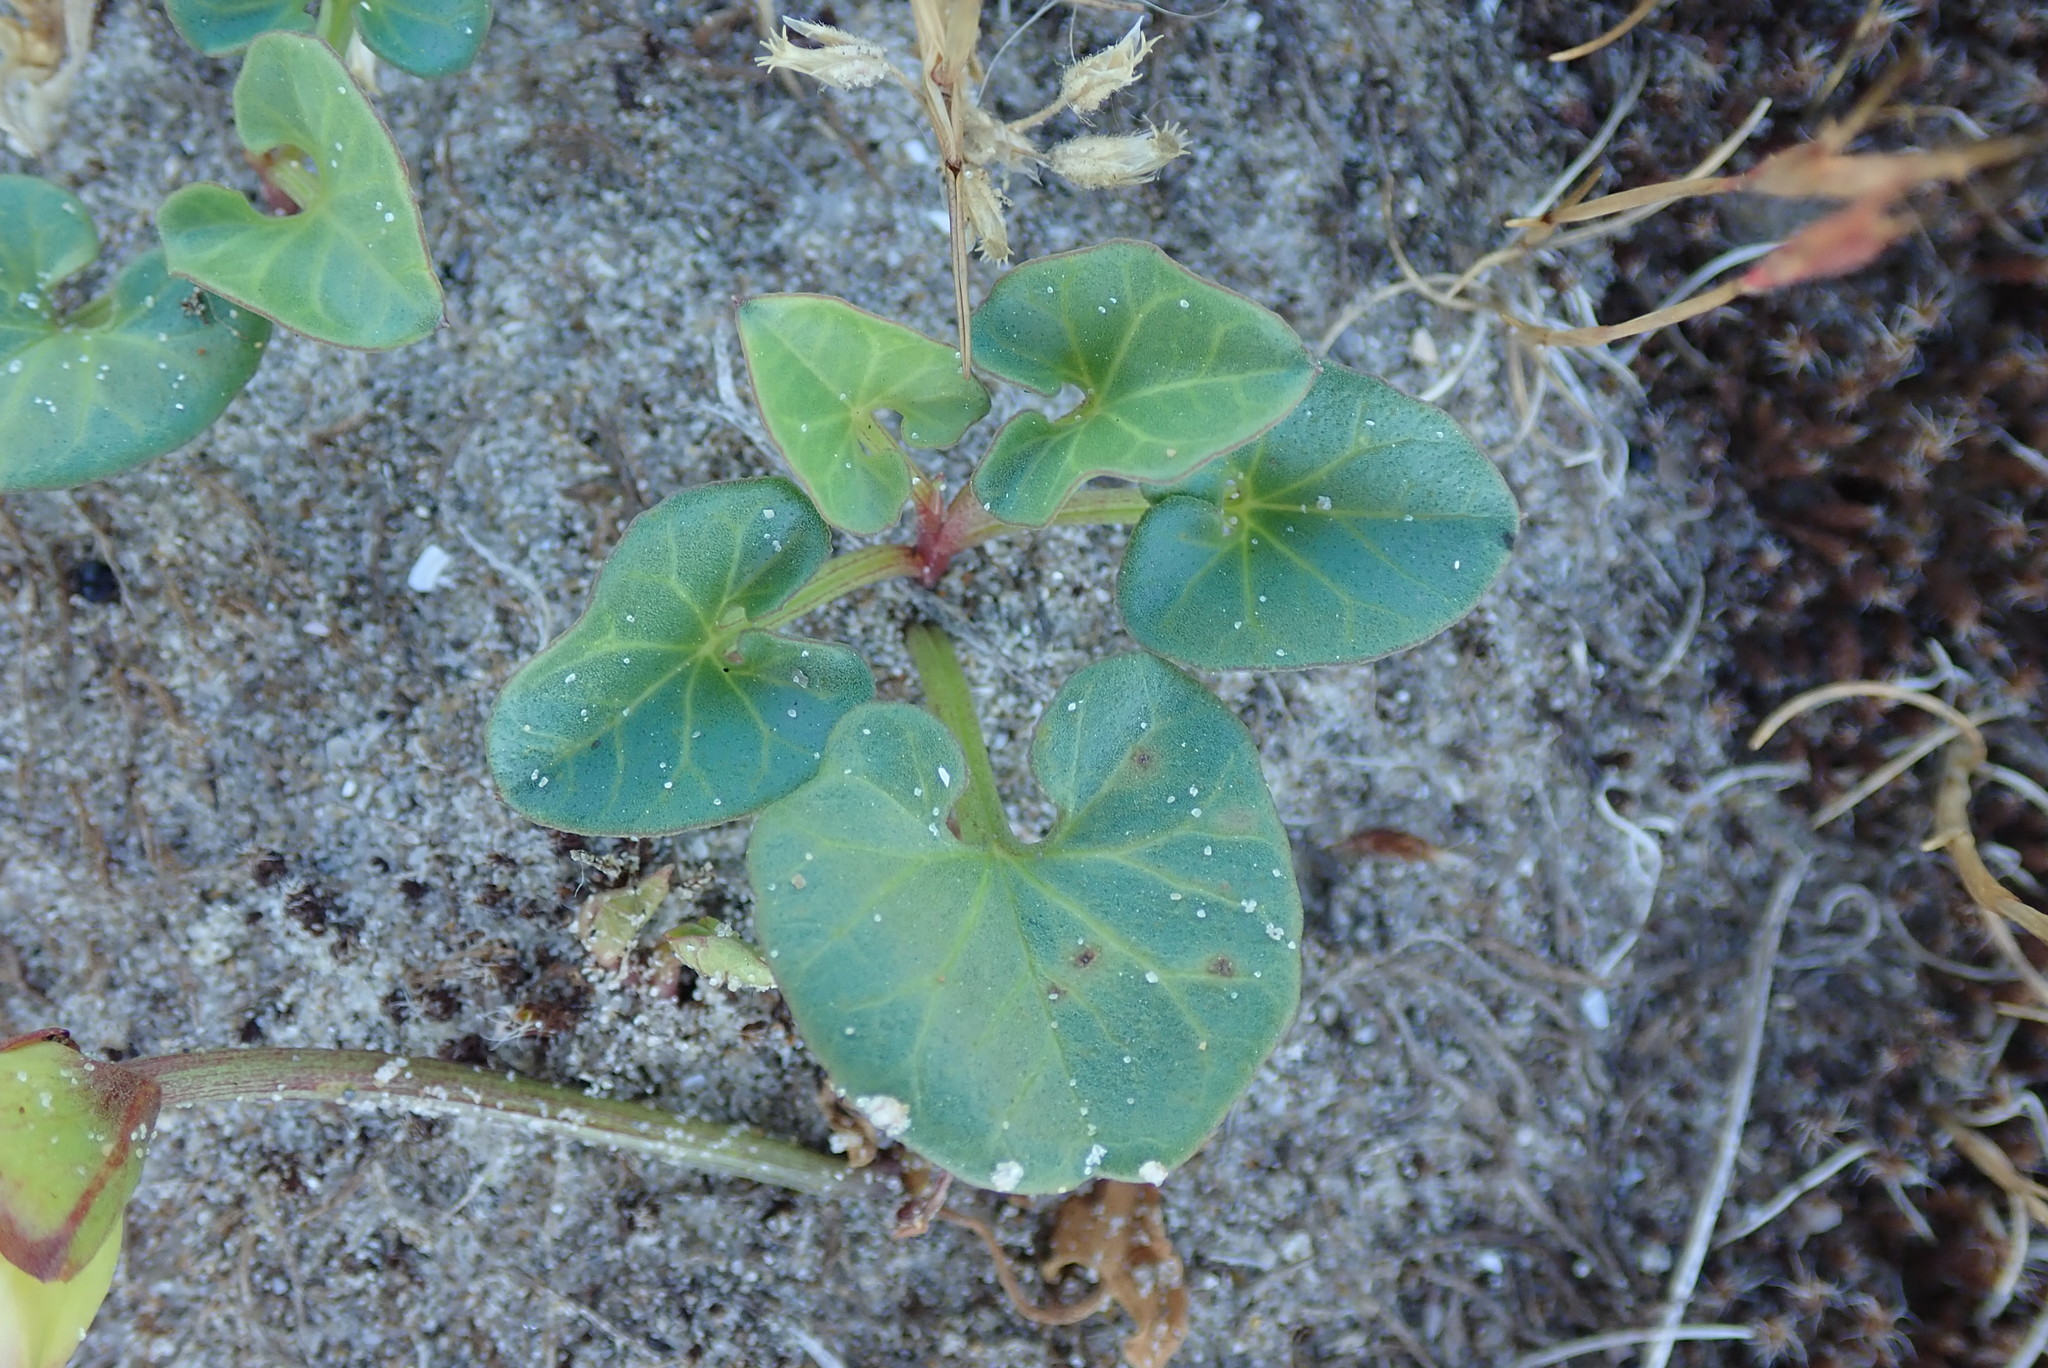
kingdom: Plantae
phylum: Tracheophyta
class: Magnoliopsida
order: Solanales
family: Convolvulaceae
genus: Calystegia
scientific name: Calystegia soldanella
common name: Sea bindweed
